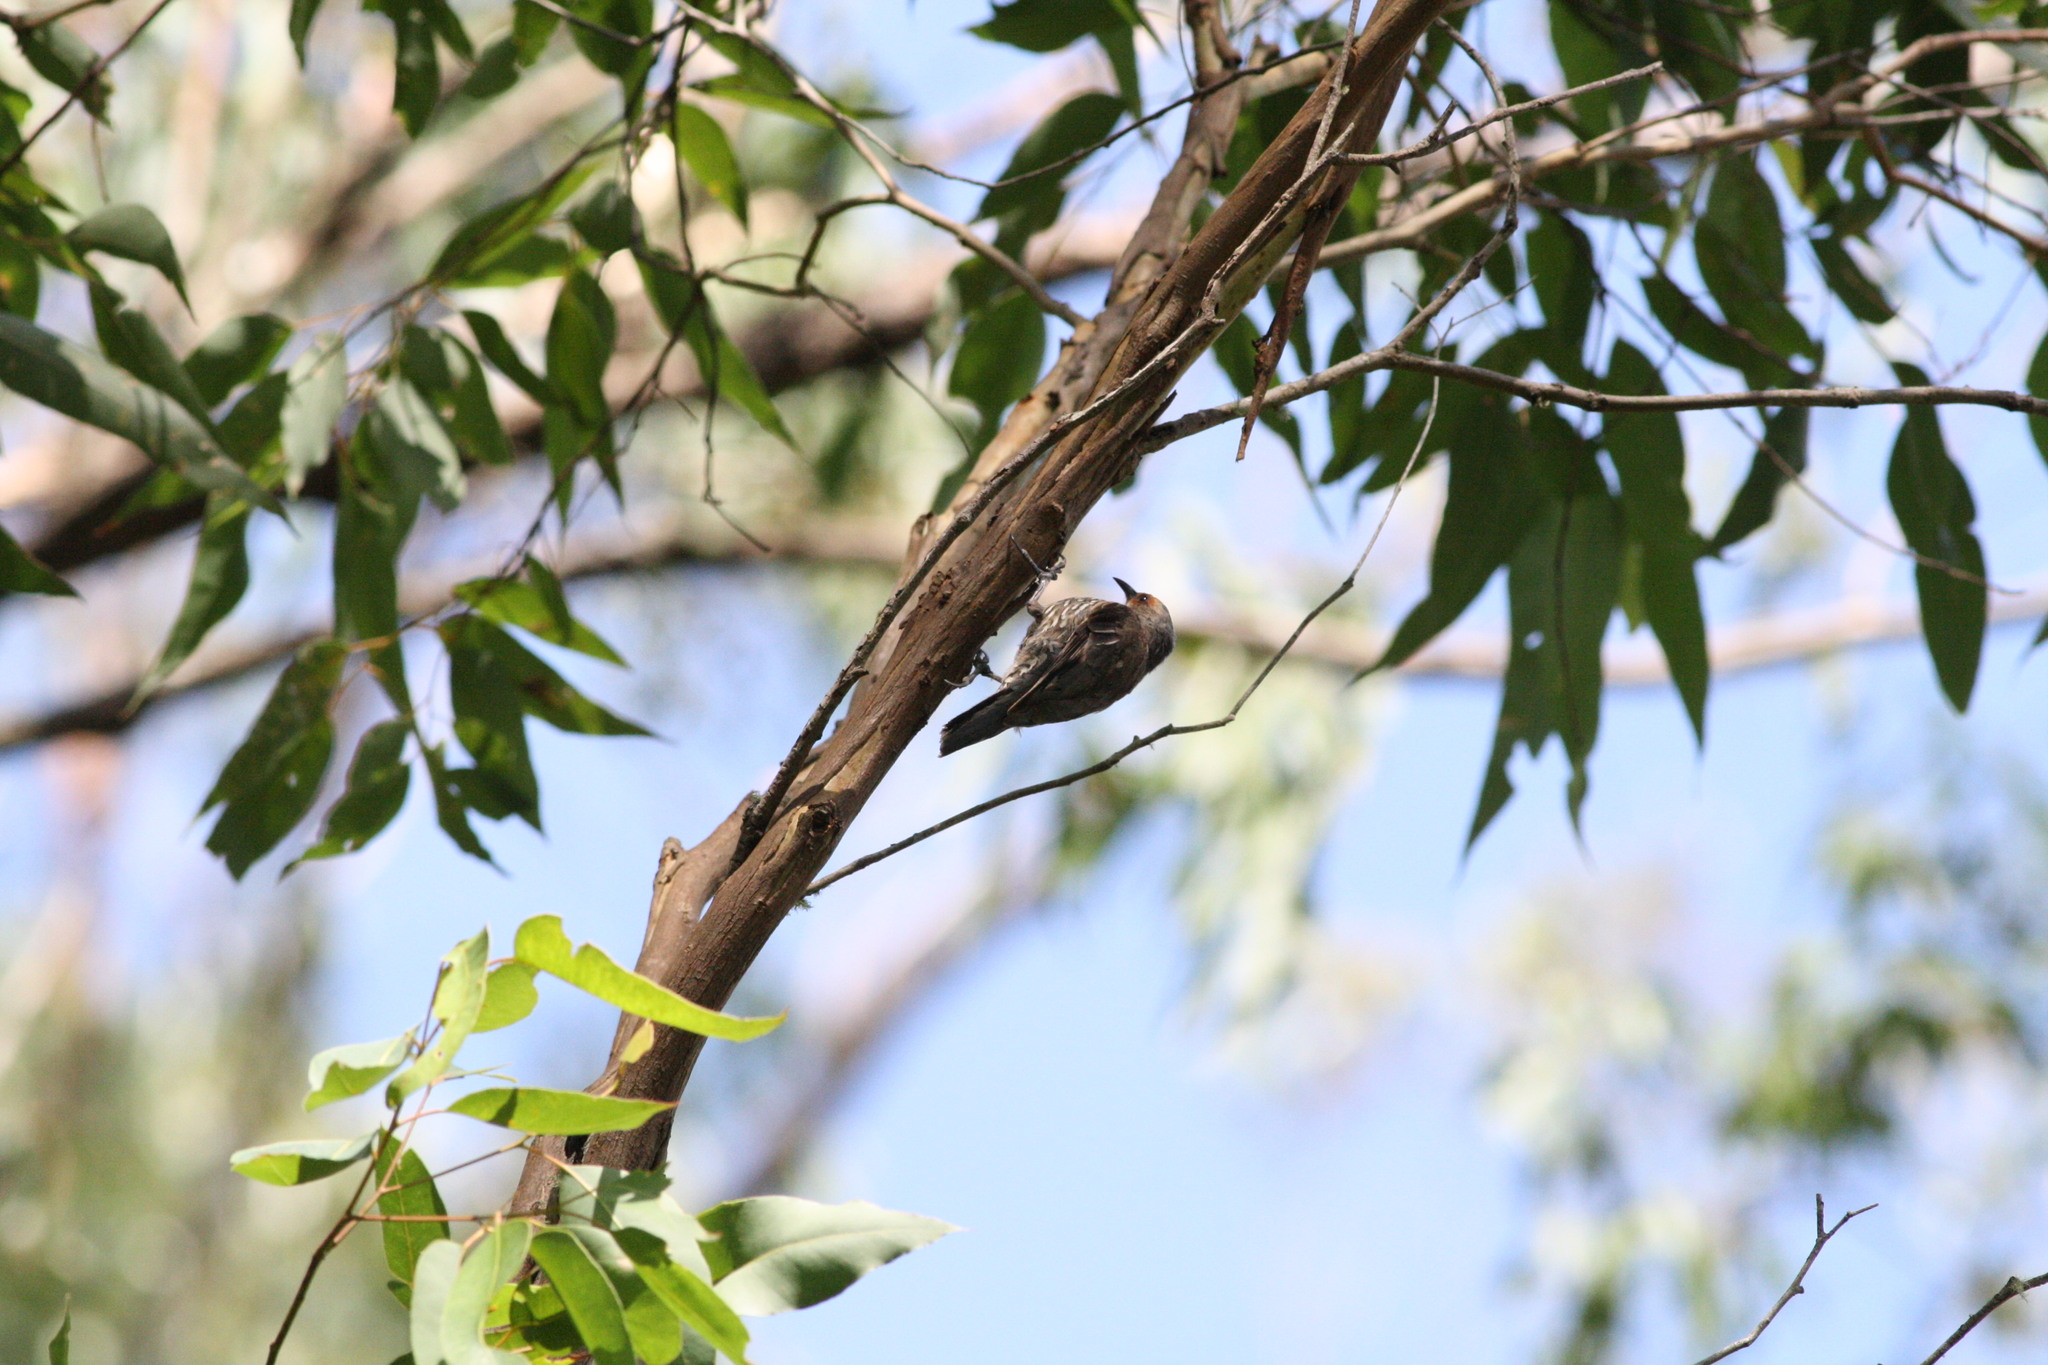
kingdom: Animalia
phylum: Chordata
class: Aves
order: Passeriformes
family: Climacteridae
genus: Climacteris
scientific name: Climacteris erythrops
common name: Red-browed treecreeper
